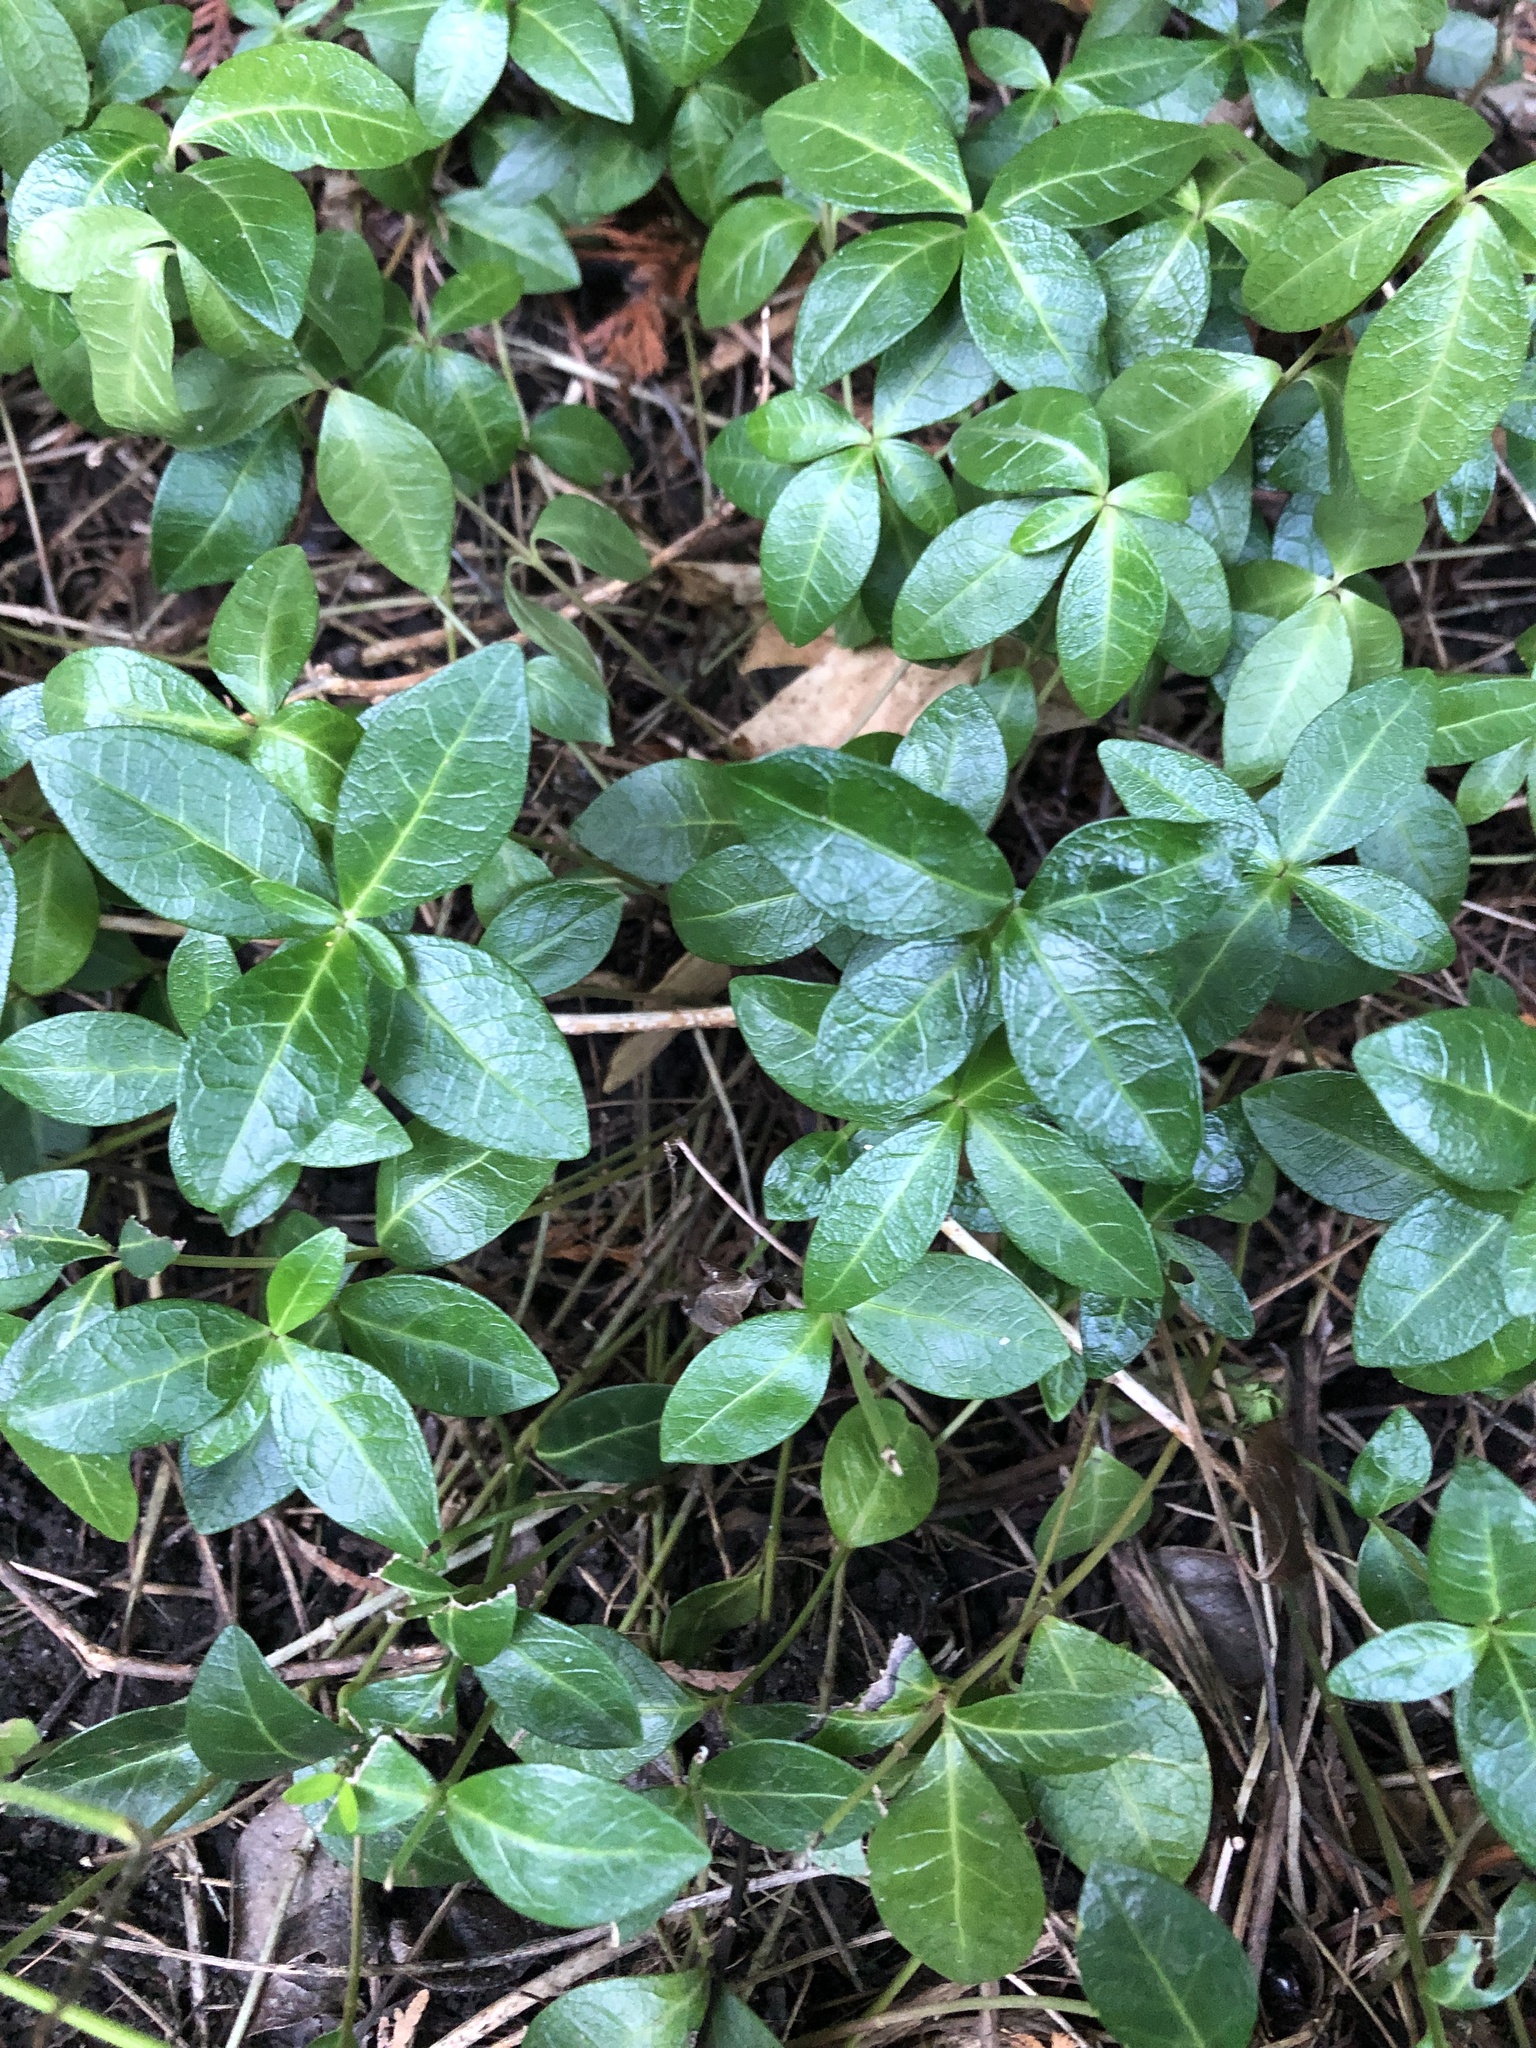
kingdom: Plantae
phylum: Tracheophyta
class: Magnoliopsida
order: Gentianales
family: Apocynaceae
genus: Vinca
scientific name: Vinca minor
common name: Lesser periwinkle
